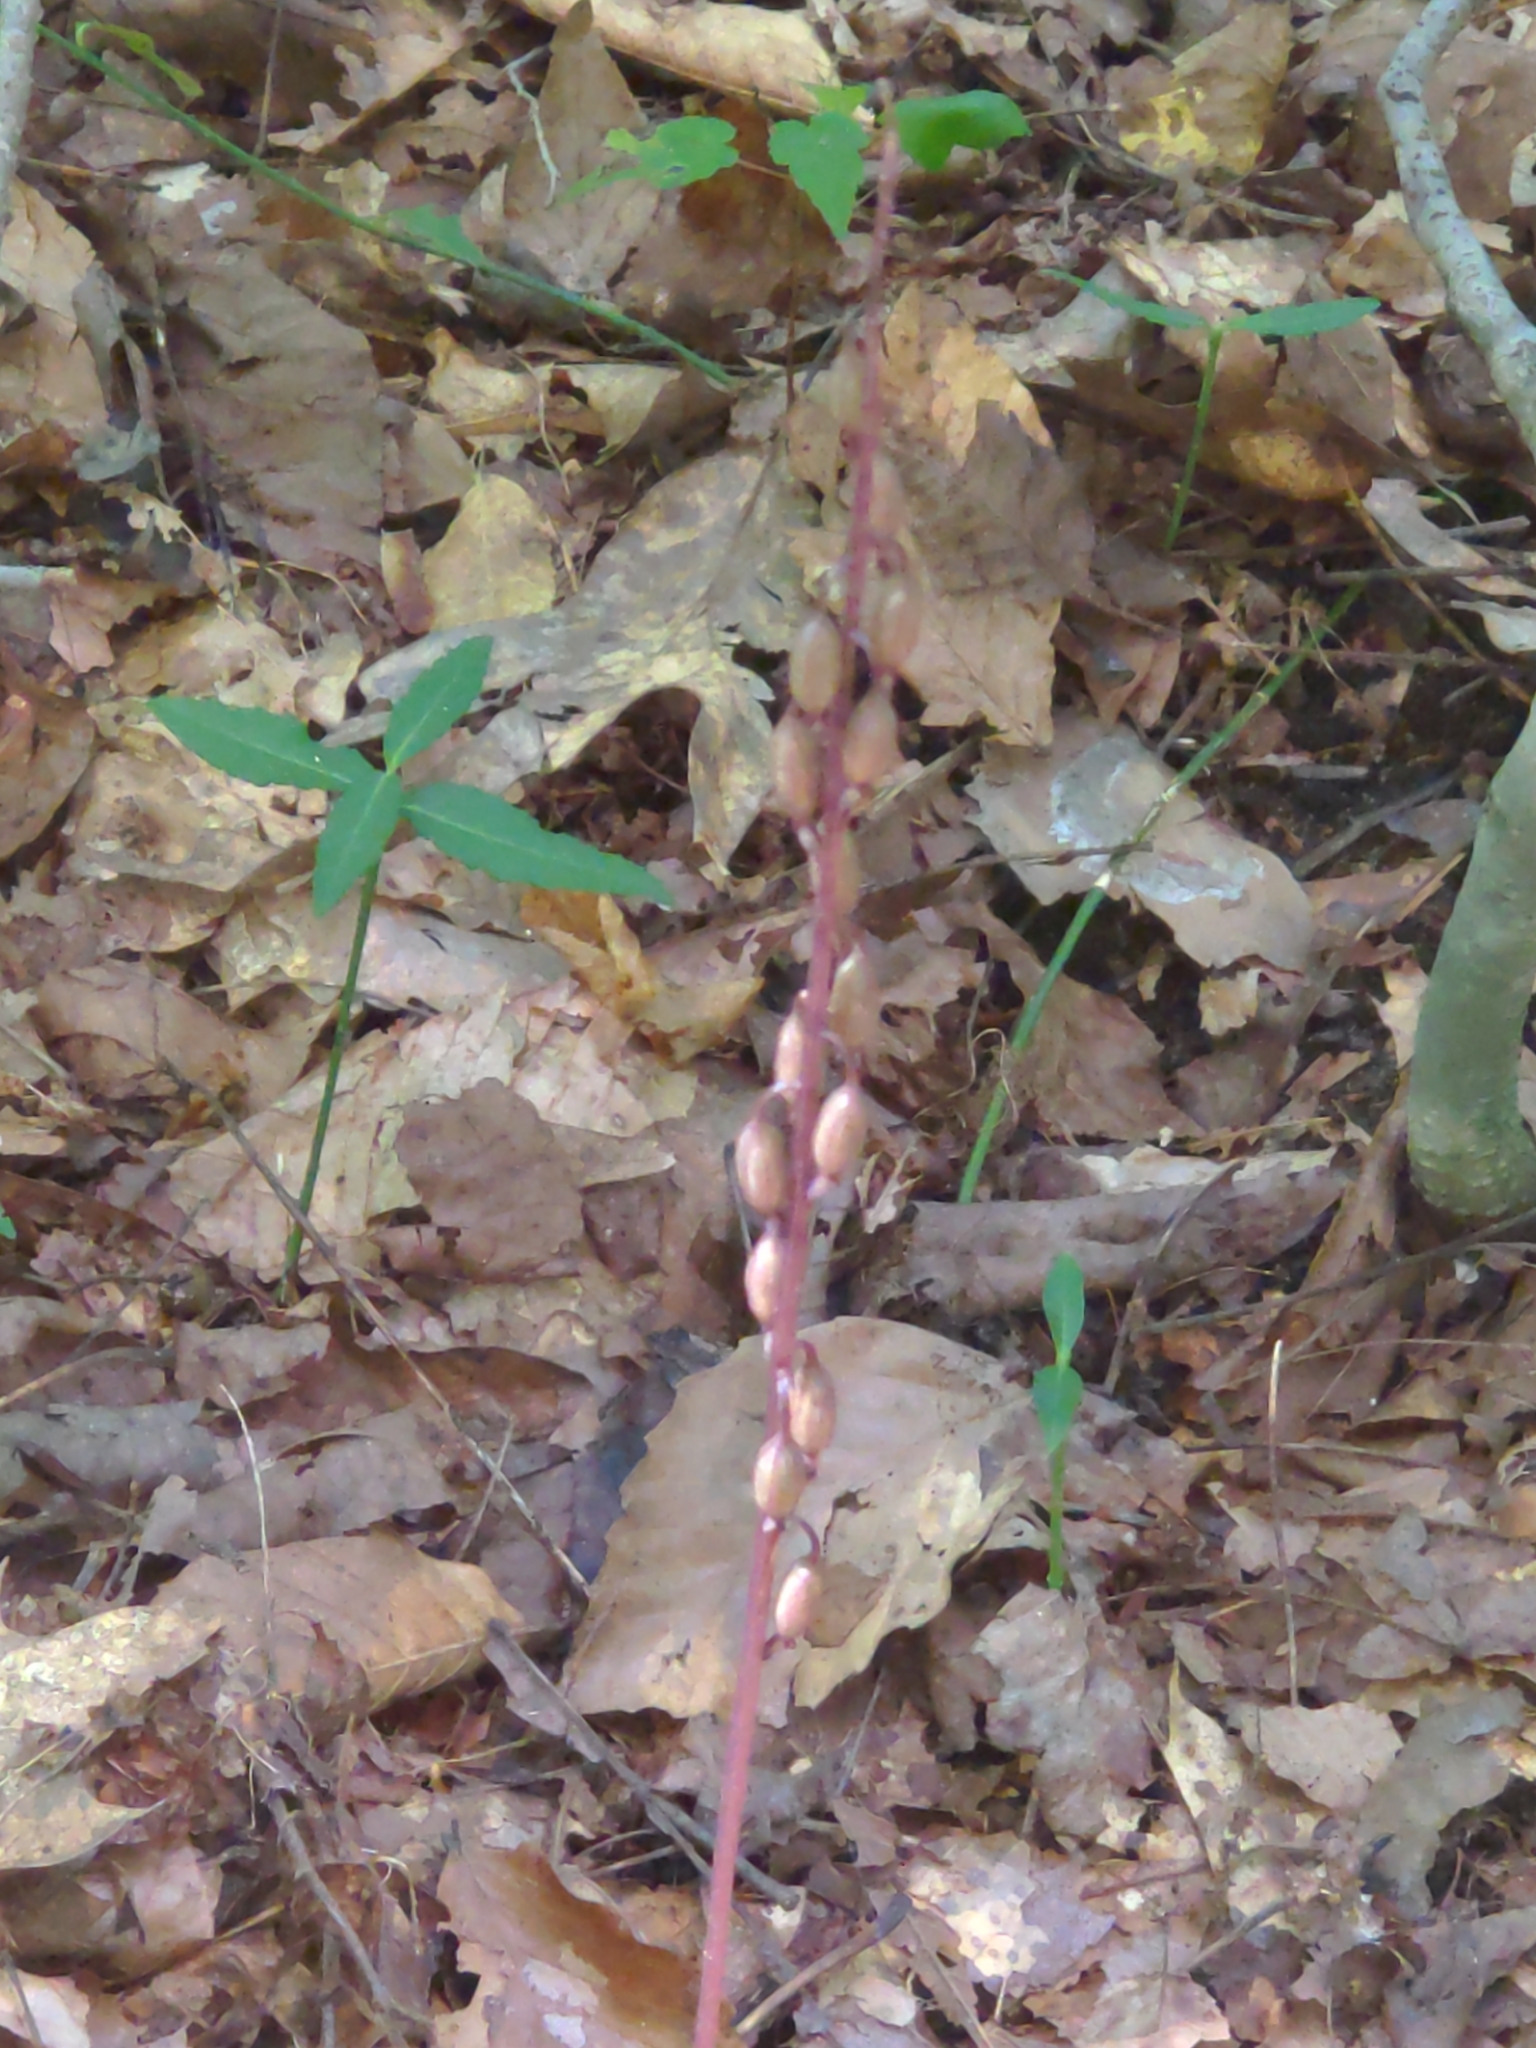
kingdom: Plantae
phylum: Tracheophyta
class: Liliopsida
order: Asparagales
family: Orchidaceae
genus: Tipularia
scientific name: Tipularia discolor
